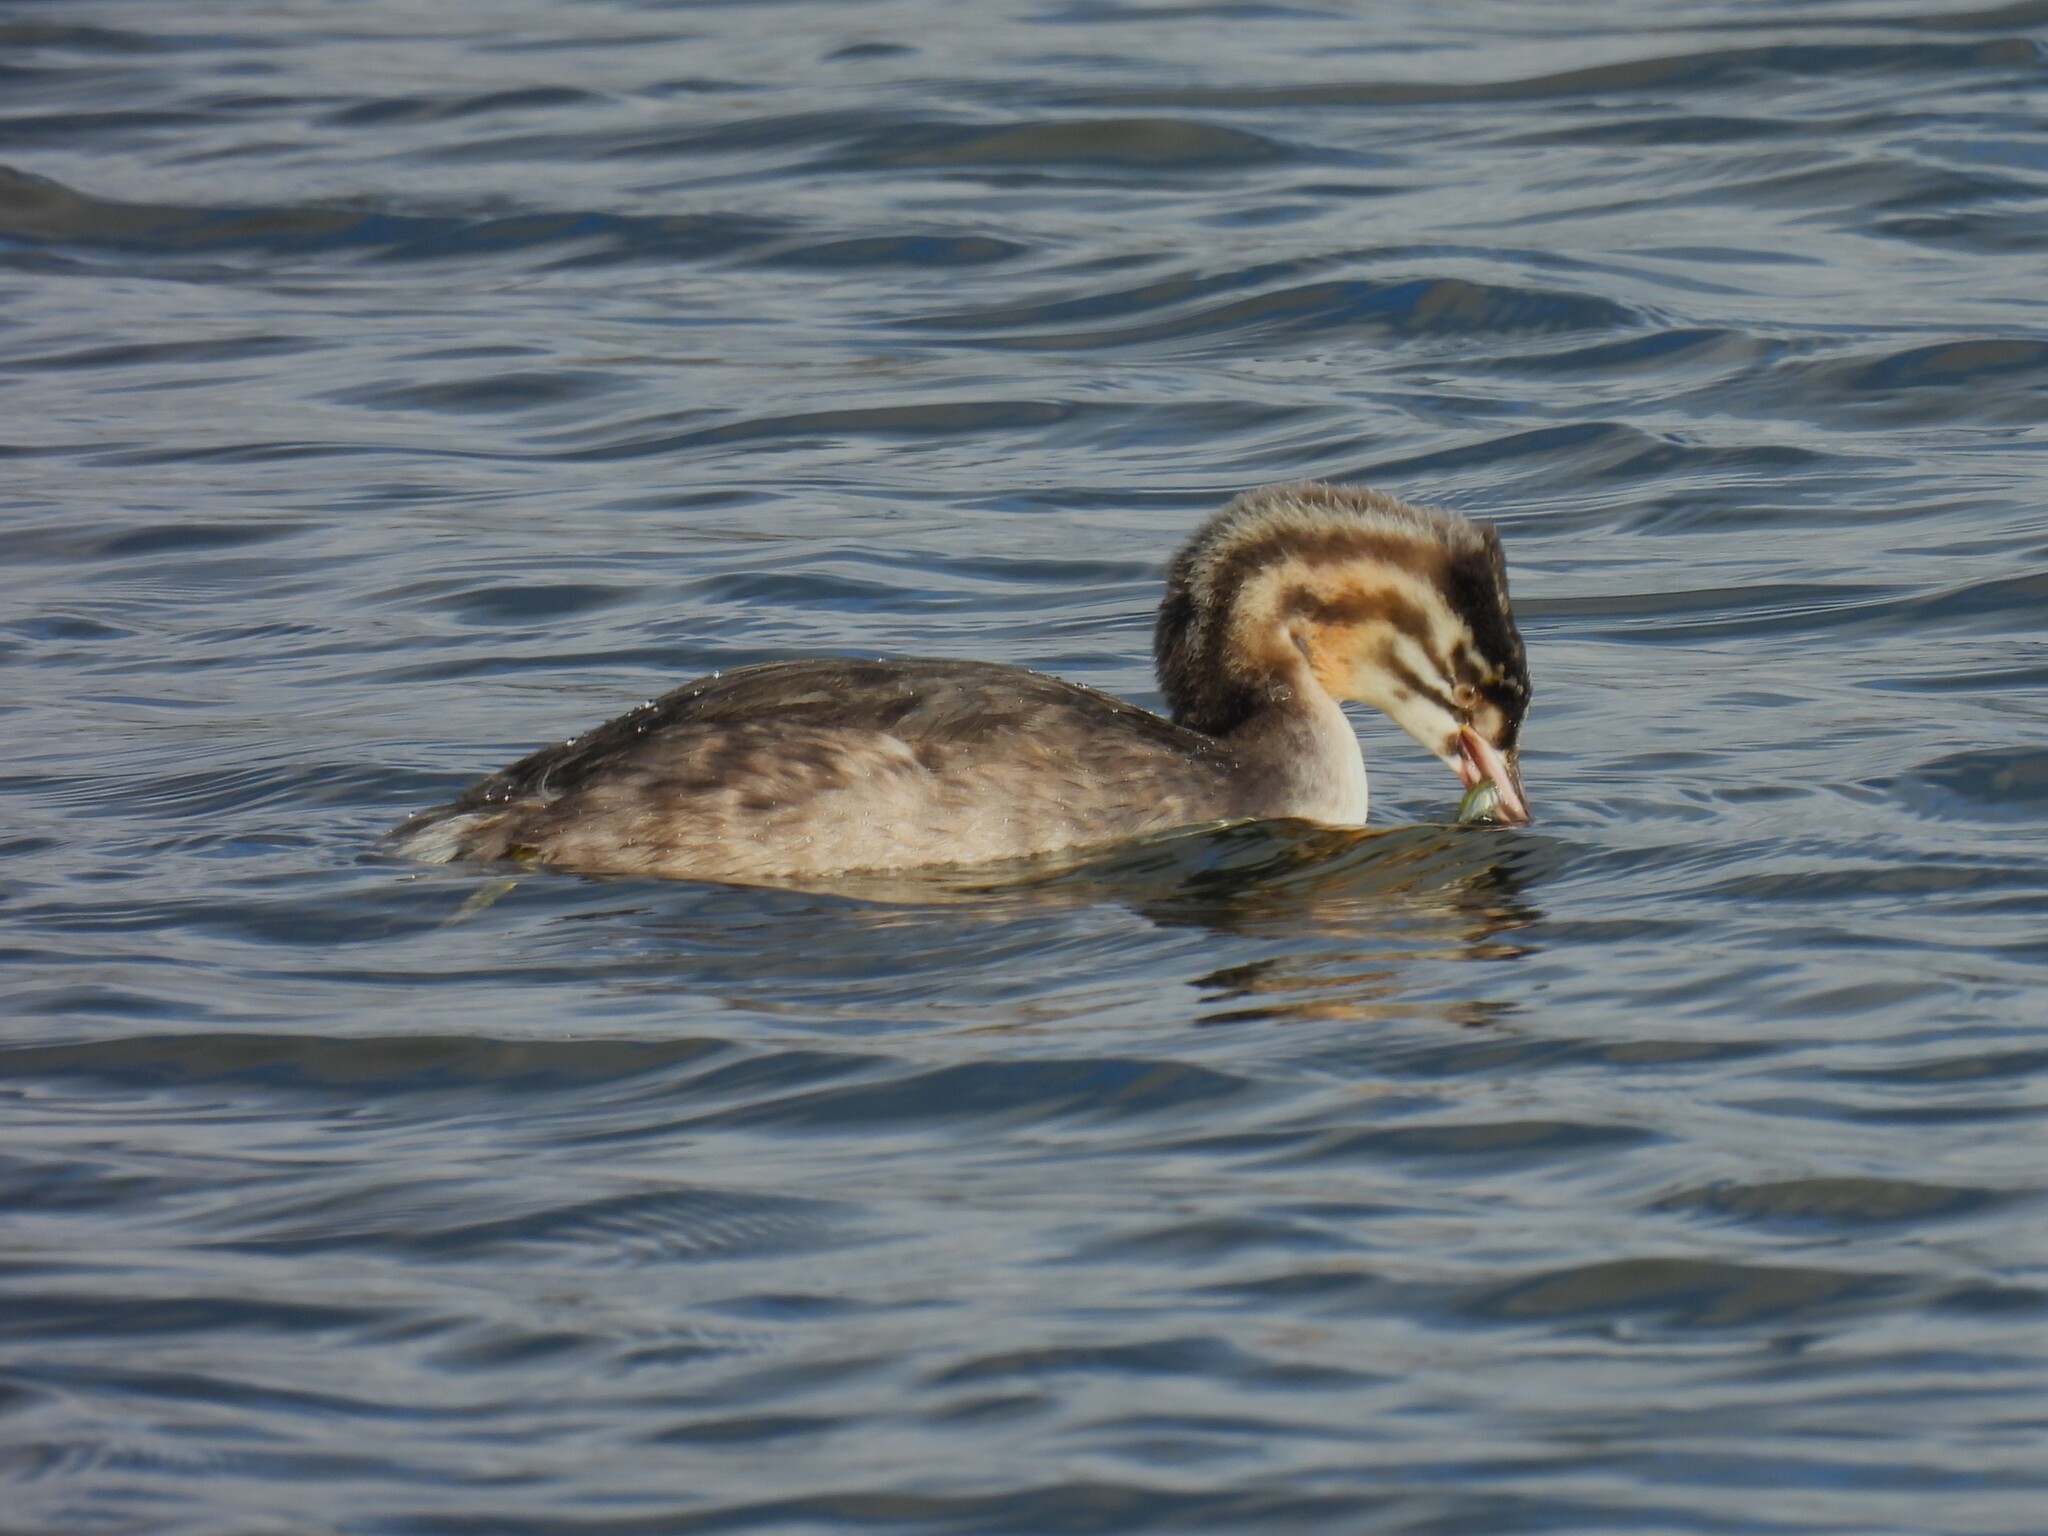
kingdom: Animalia
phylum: Chordata
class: Aves
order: Podicipediformes
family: Podicipedidae
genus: Podiceps
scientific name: Podiceps cristatus
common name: Great crested grebe
